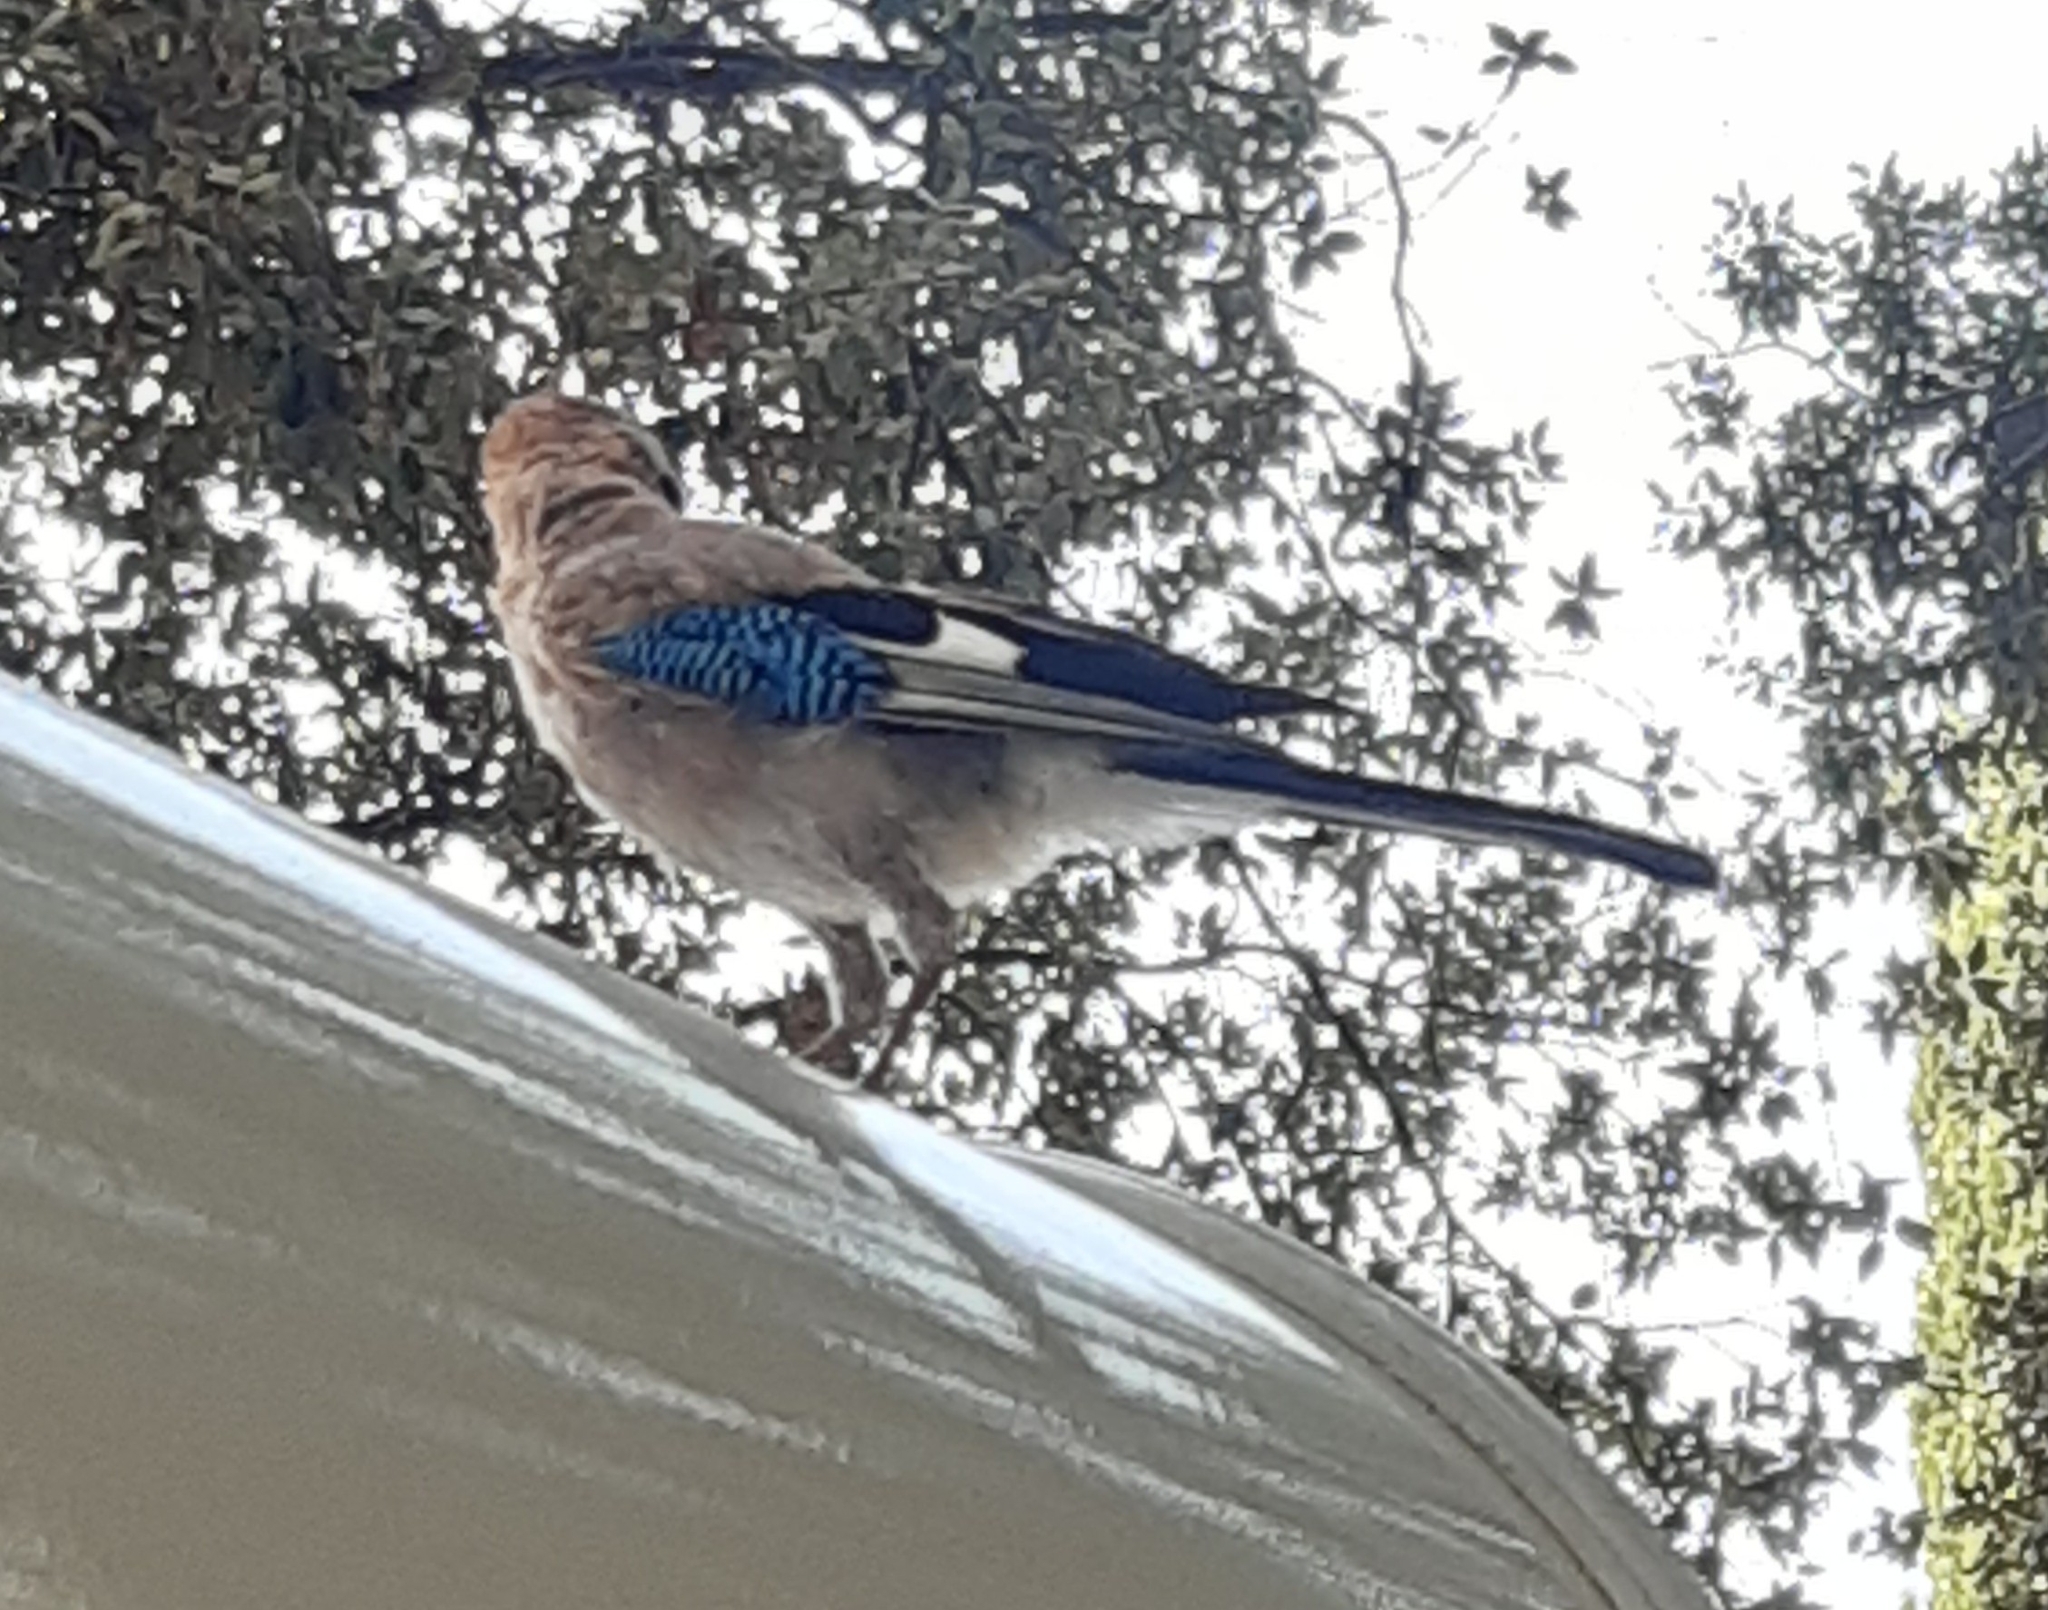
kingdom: Animalia
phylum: Chordata
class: Aves
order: Passeriformes
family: Corvidae
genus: Garrulus
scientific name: Garrulus glandarius
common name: Eurasian jay
